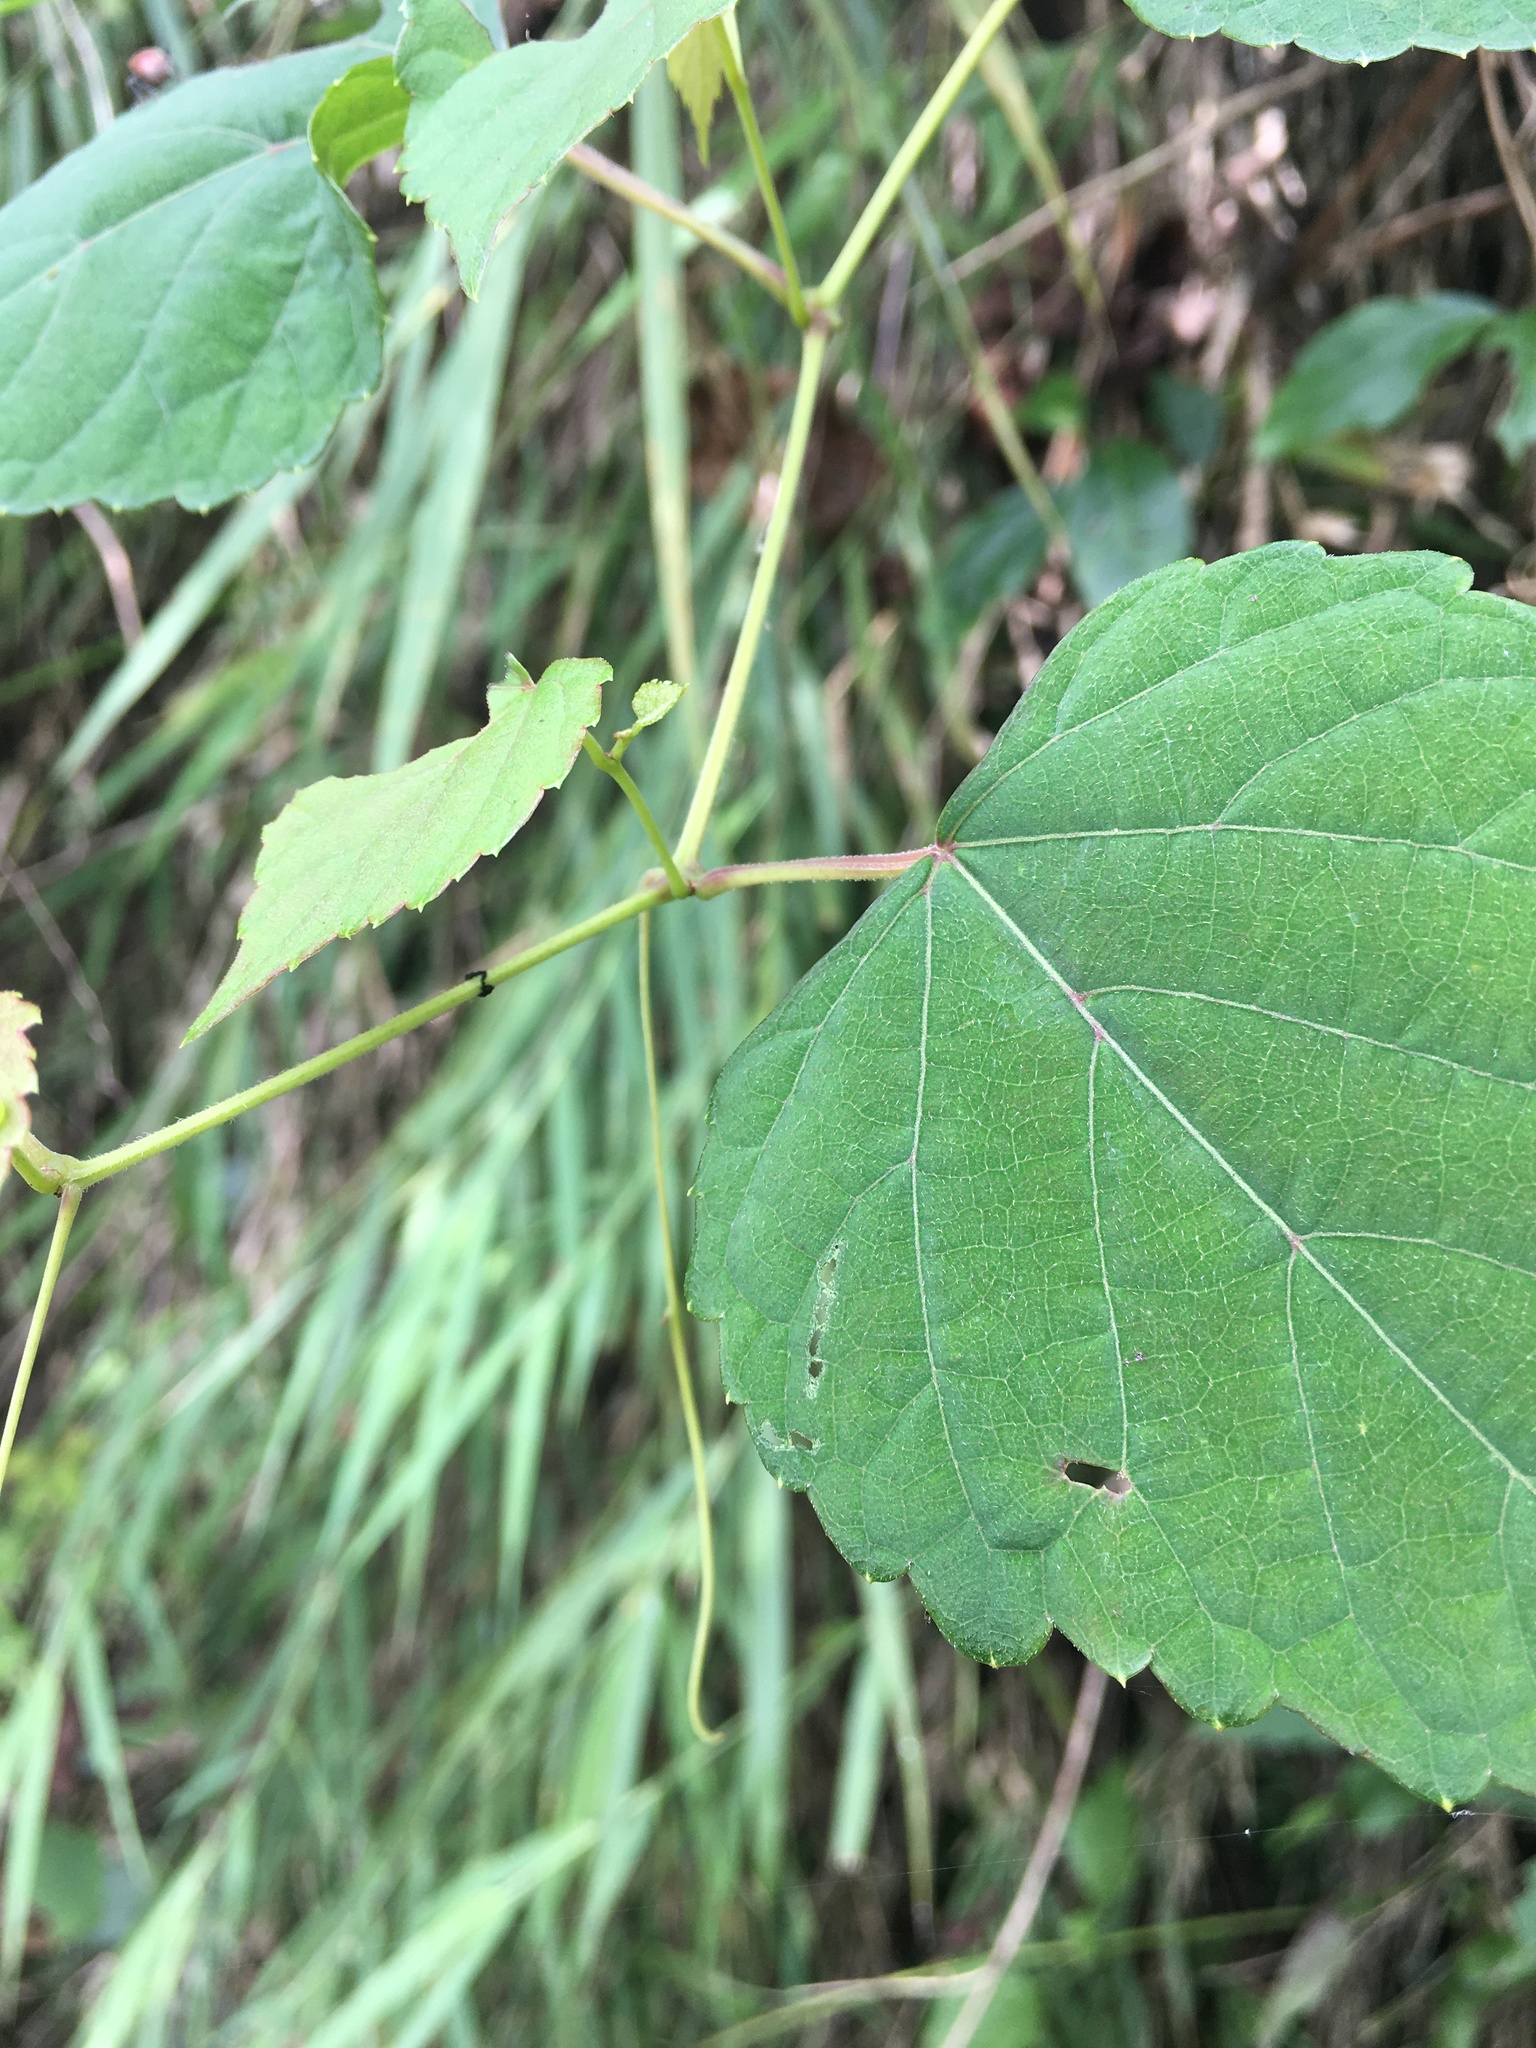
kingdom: Plantae
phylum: Tracheophyta
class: Magnoliopsida
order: Vitales
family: Vitaceae
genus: Ampelopsis
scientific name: Ampelopsis glandulosa
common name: Amur peppervine
